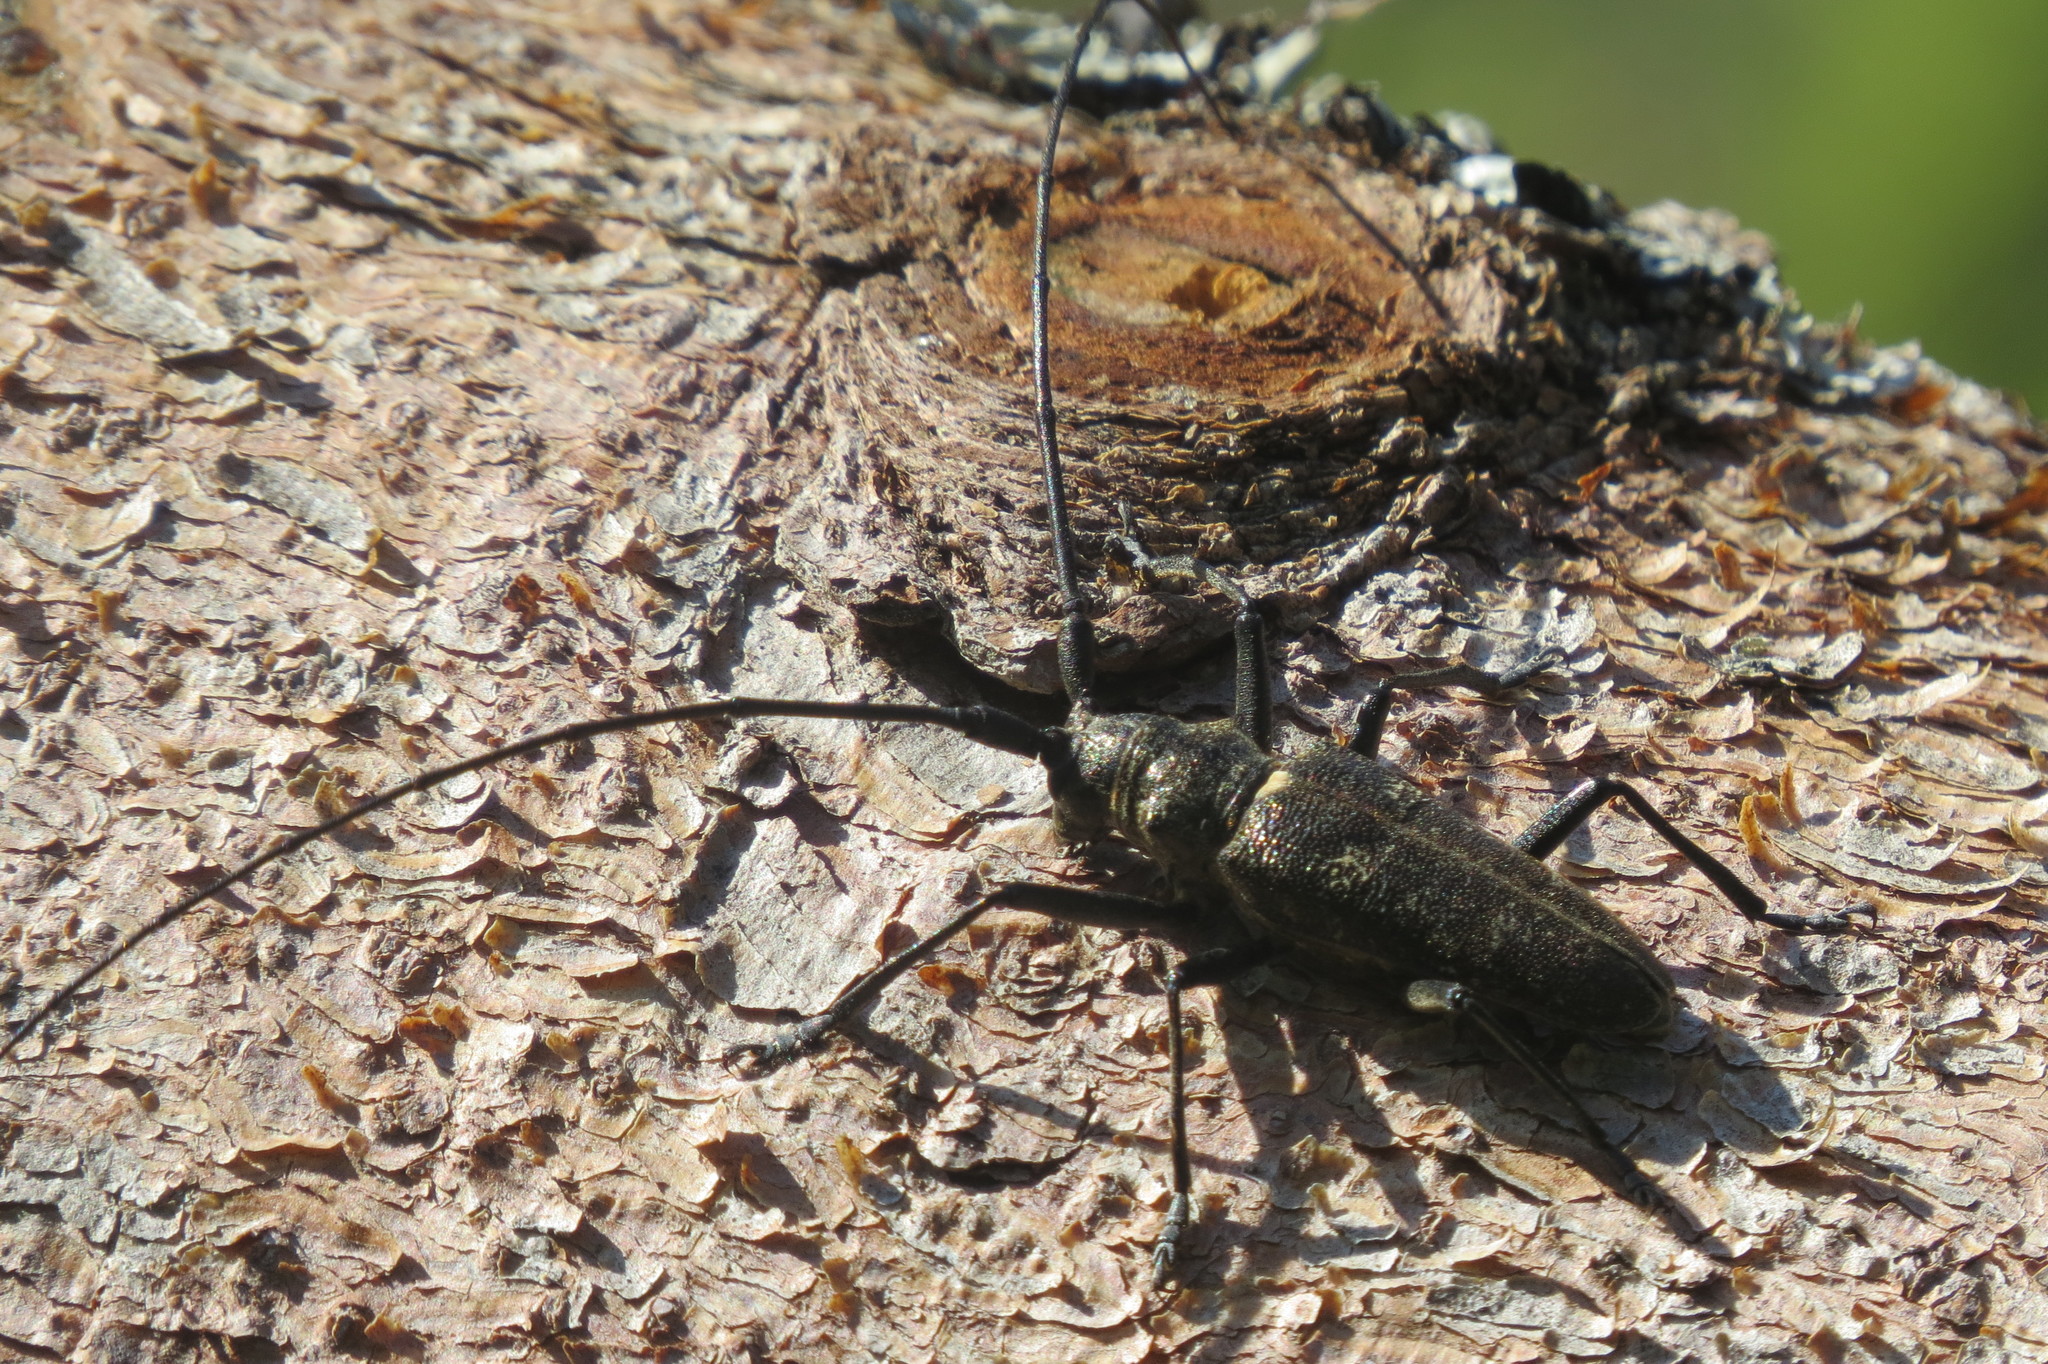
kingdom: Animalia
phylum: Arthropoda
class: Insecta
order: Coleoptera
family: Cerambycidae
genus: Monochamus
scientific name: Monochamus sartor
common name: Pine sawyer
